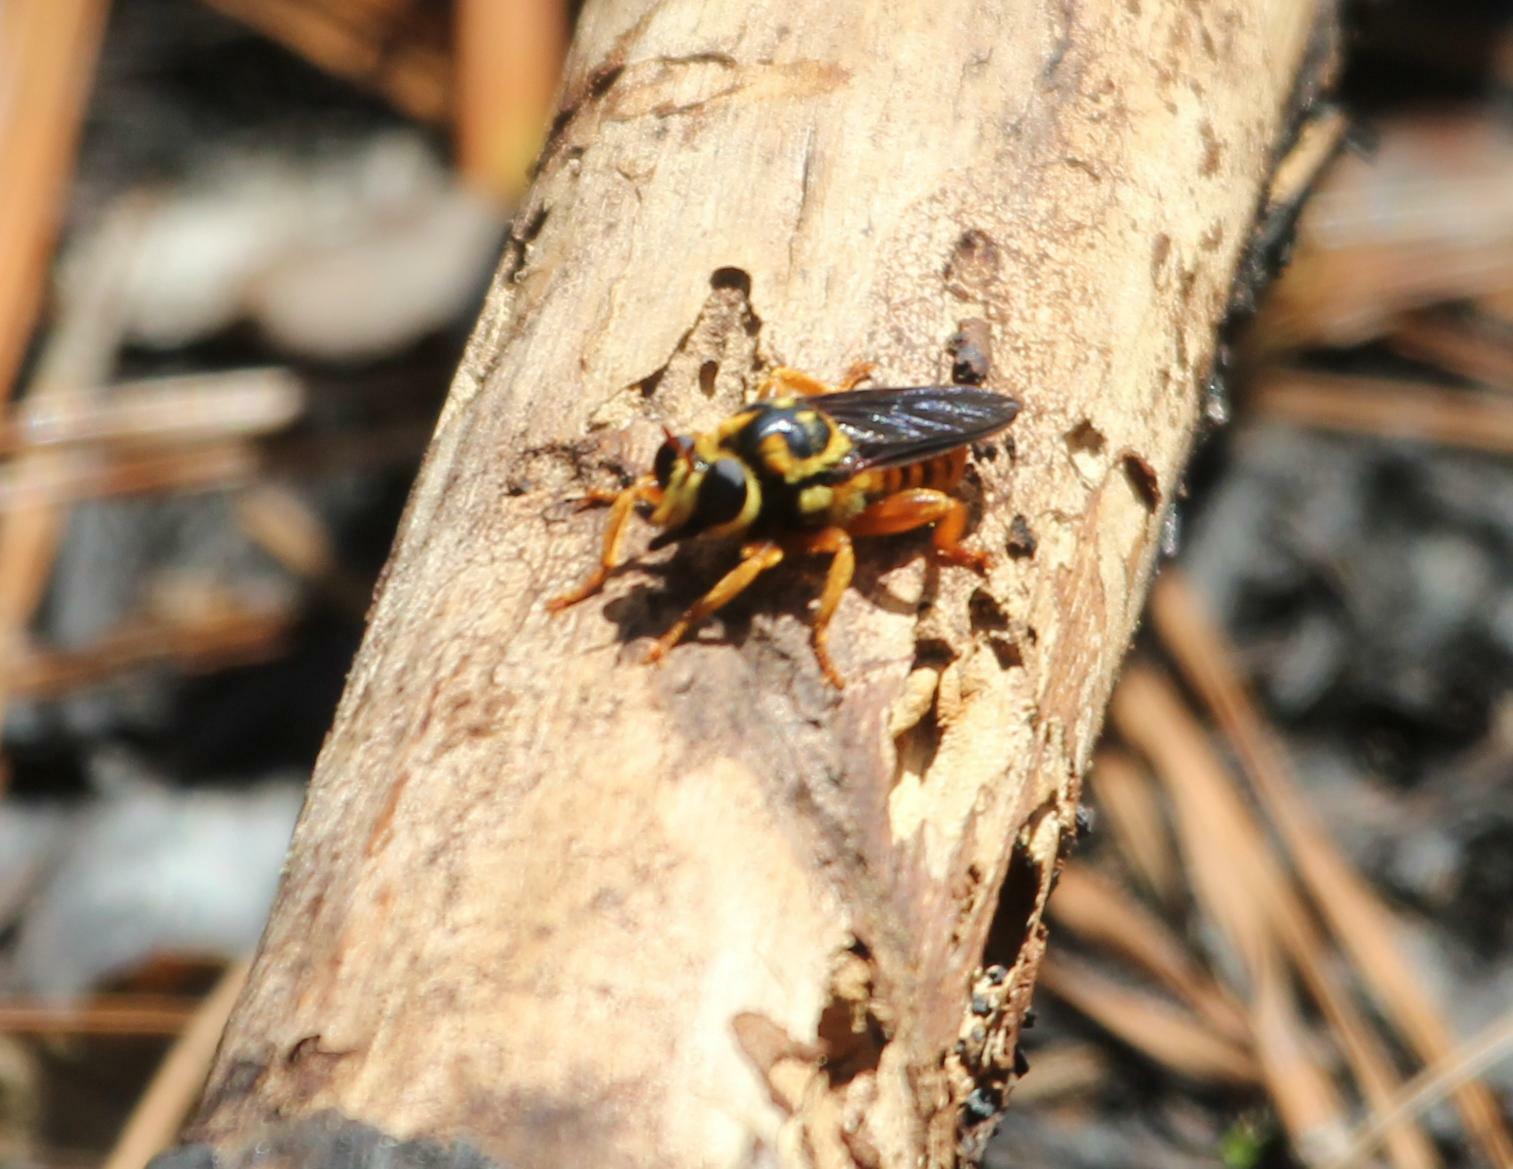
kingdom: Animalia
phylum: Arthropoda
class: Insecta
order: Diptera
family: Asilidae
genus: Laphria
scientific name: Laphria saffrana
